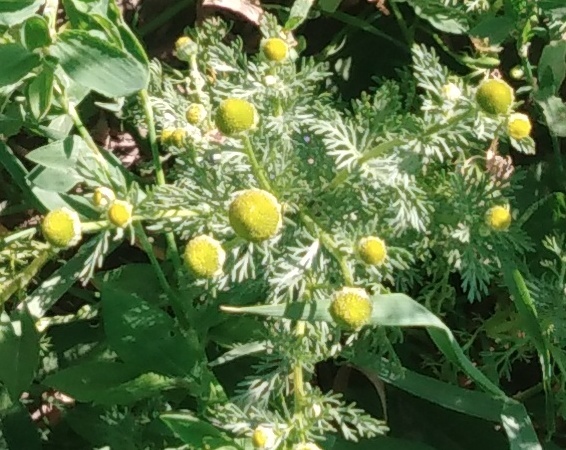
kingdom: Plantae
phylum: Tracheophyta
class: Magnoliopsida
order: Asterales
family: Asteraceae
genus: Matricaria
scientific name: Matricaria discoidea
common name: Disc mayweed
